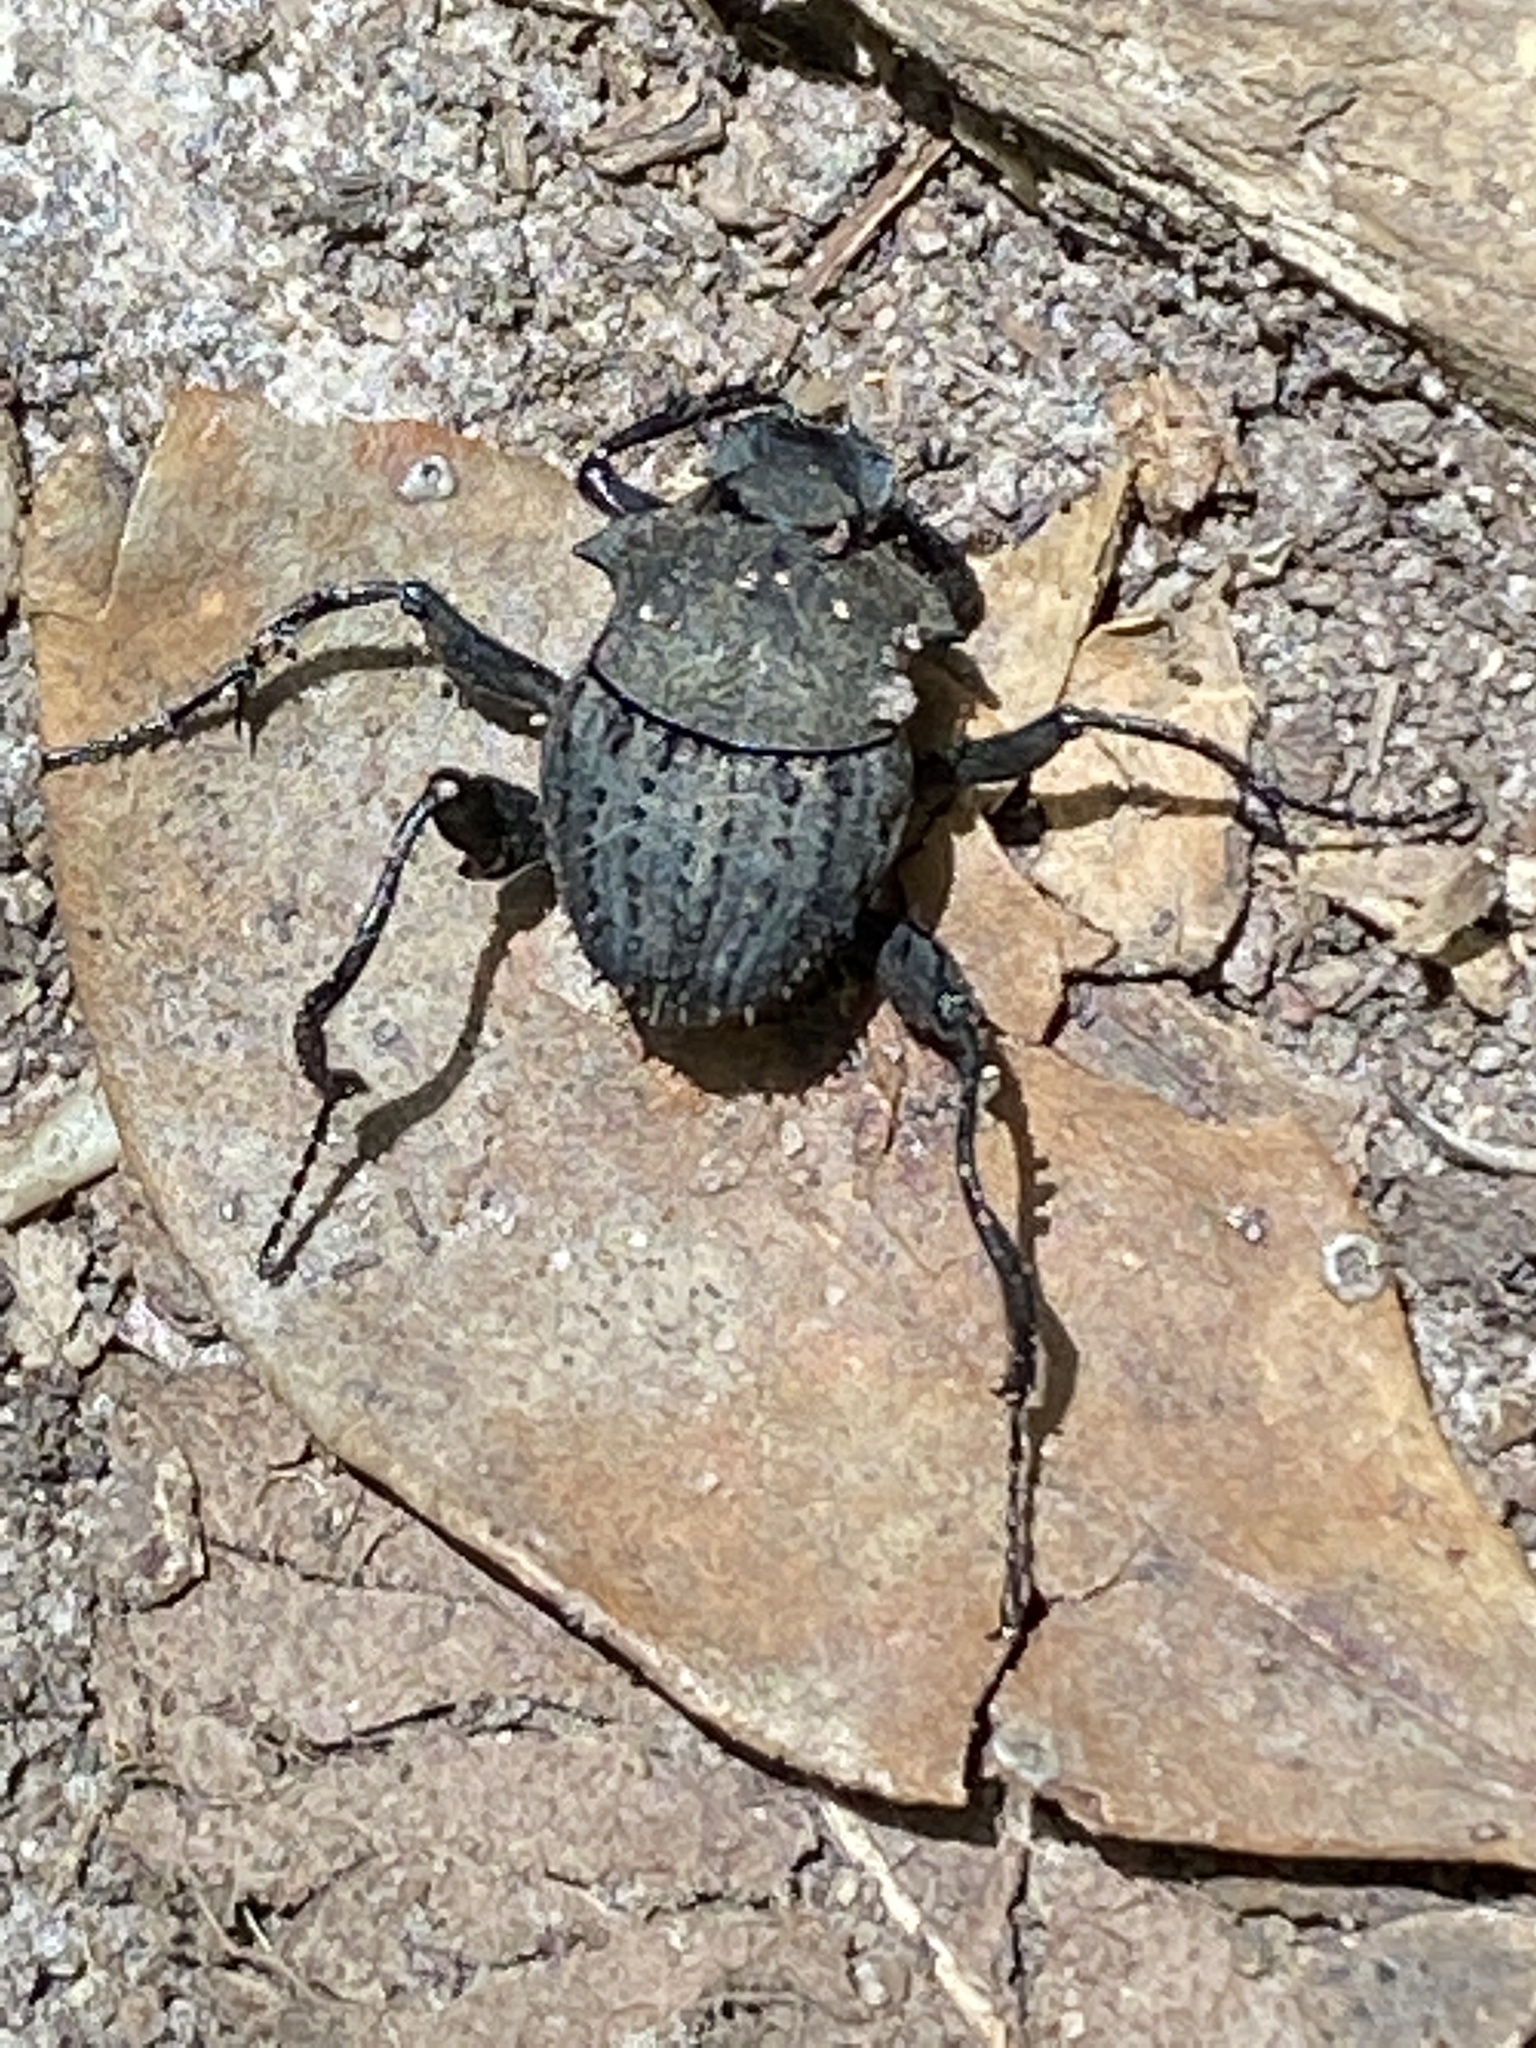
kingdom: Animalia
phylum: Arthropoda
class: Insecta
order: Coleoptera
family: Scarabaeidae
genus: Sisyphus
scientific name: Sisyphus muricatus
